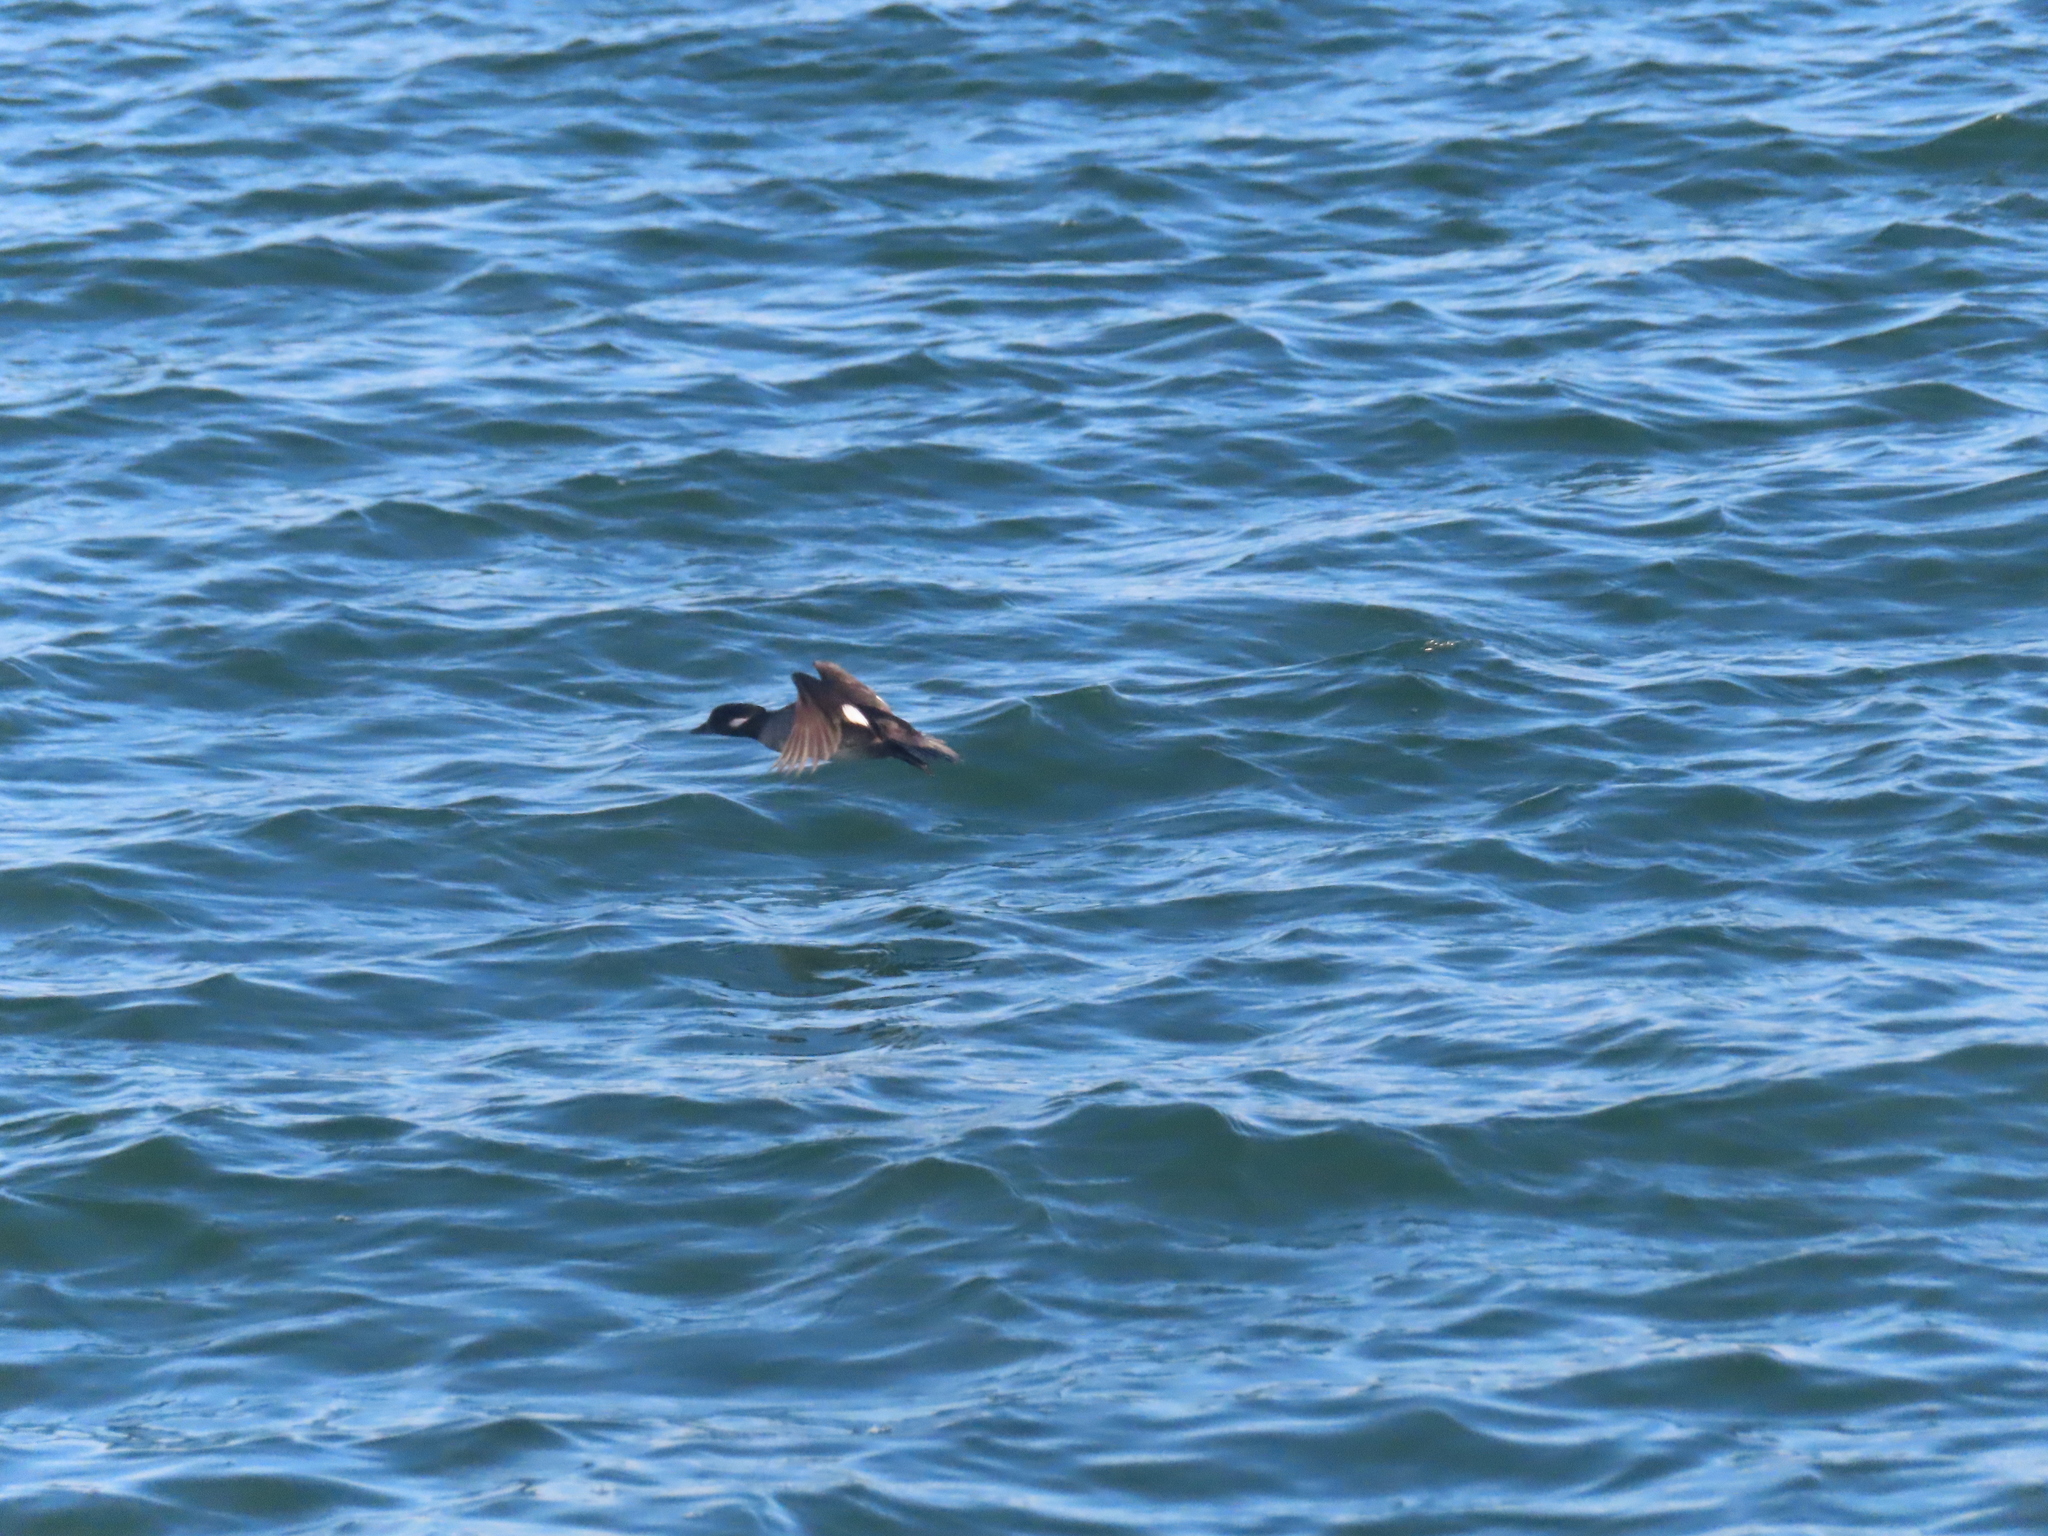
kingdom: Animalia
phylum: Chordata
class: Aves
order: Anseriformes
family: Anatidae
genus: Bucephala
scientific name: Bucephala albeola
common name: Bufflehead
